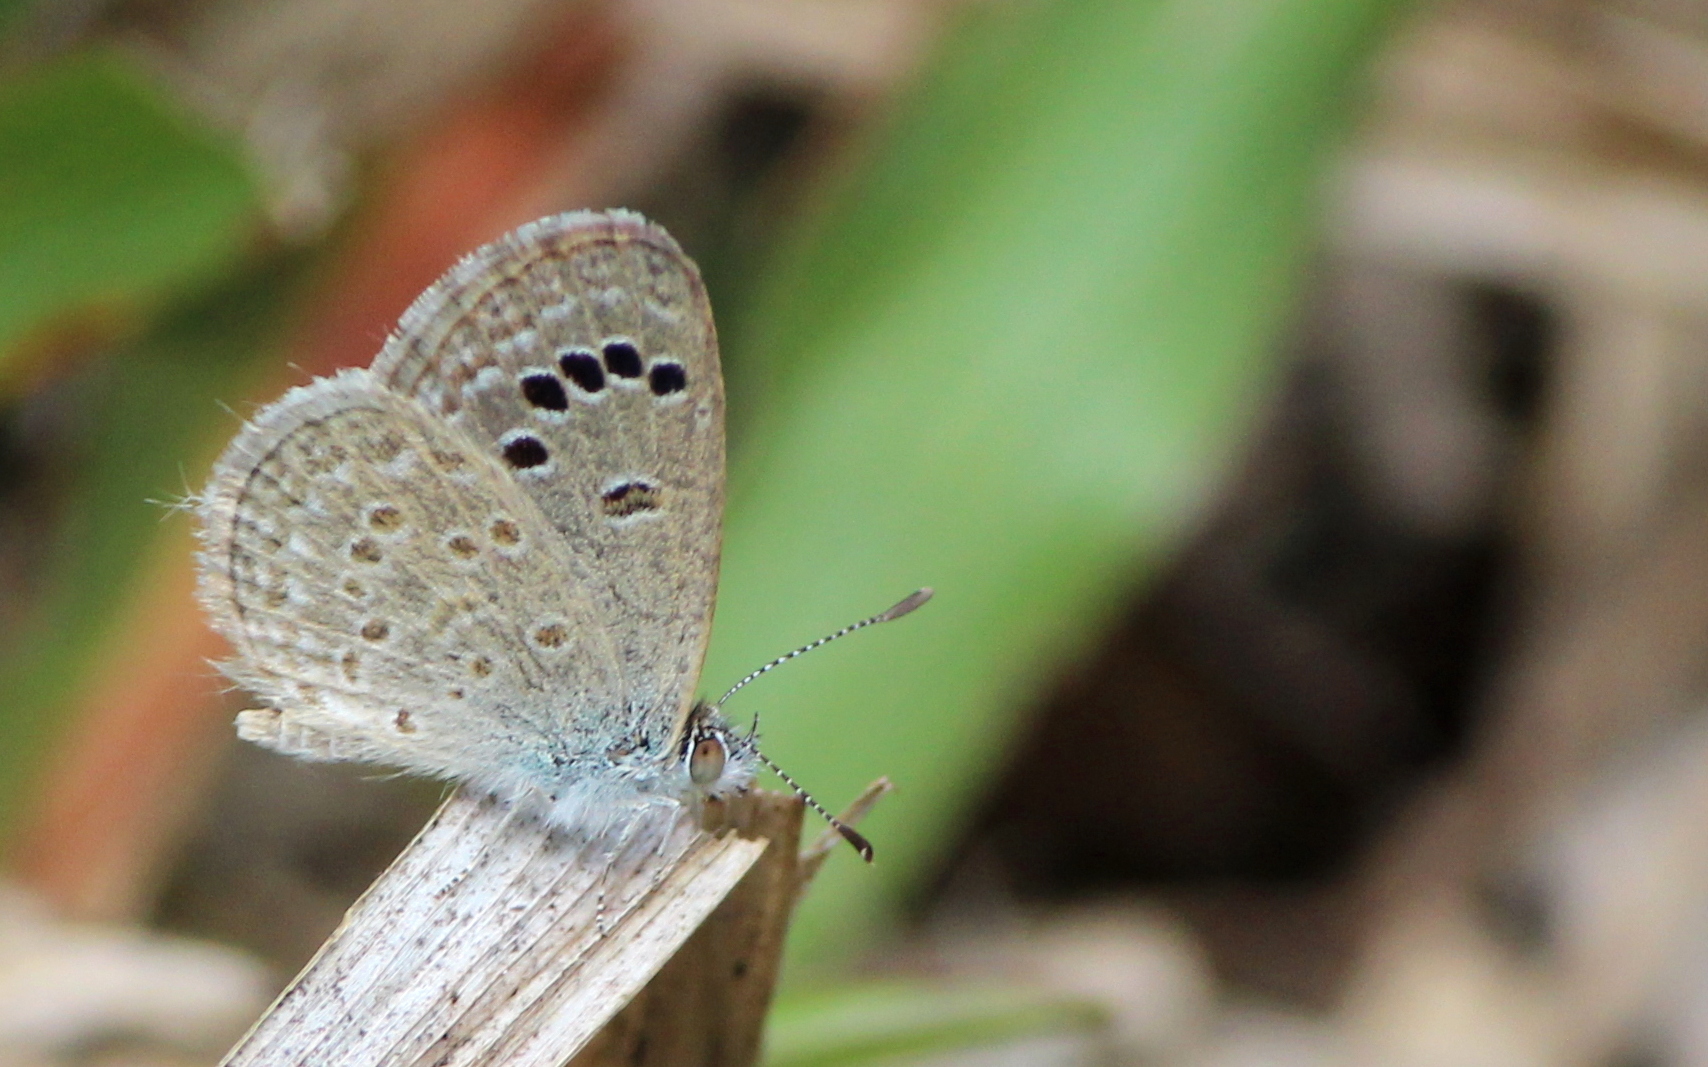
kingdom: Animalia
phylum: Arthropoda
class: Insecta
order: Lepidoptera
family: Lycaenidae
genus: Zizina
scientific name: Zizina otis
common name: Lesser grass blue
